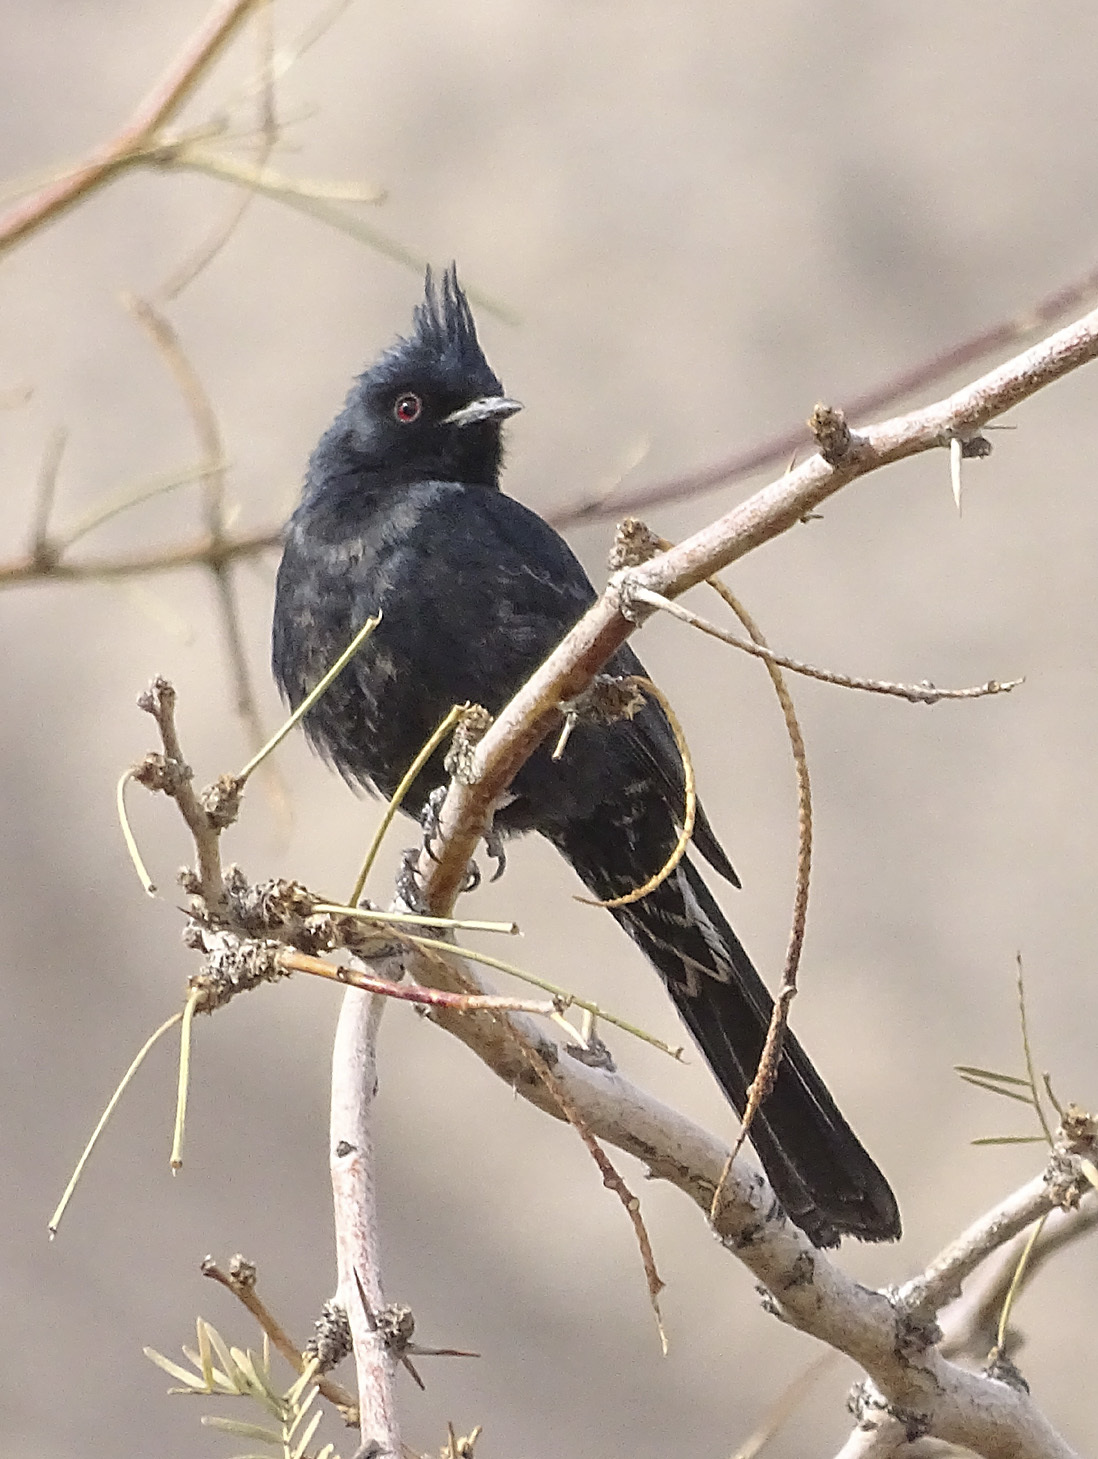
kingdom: Animalia
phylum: Chordata
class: Aves
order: Passeriformes
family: Ptilogonatidae
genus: Phainopepla
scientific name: Phainopepla nitens
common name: Phainopepla
